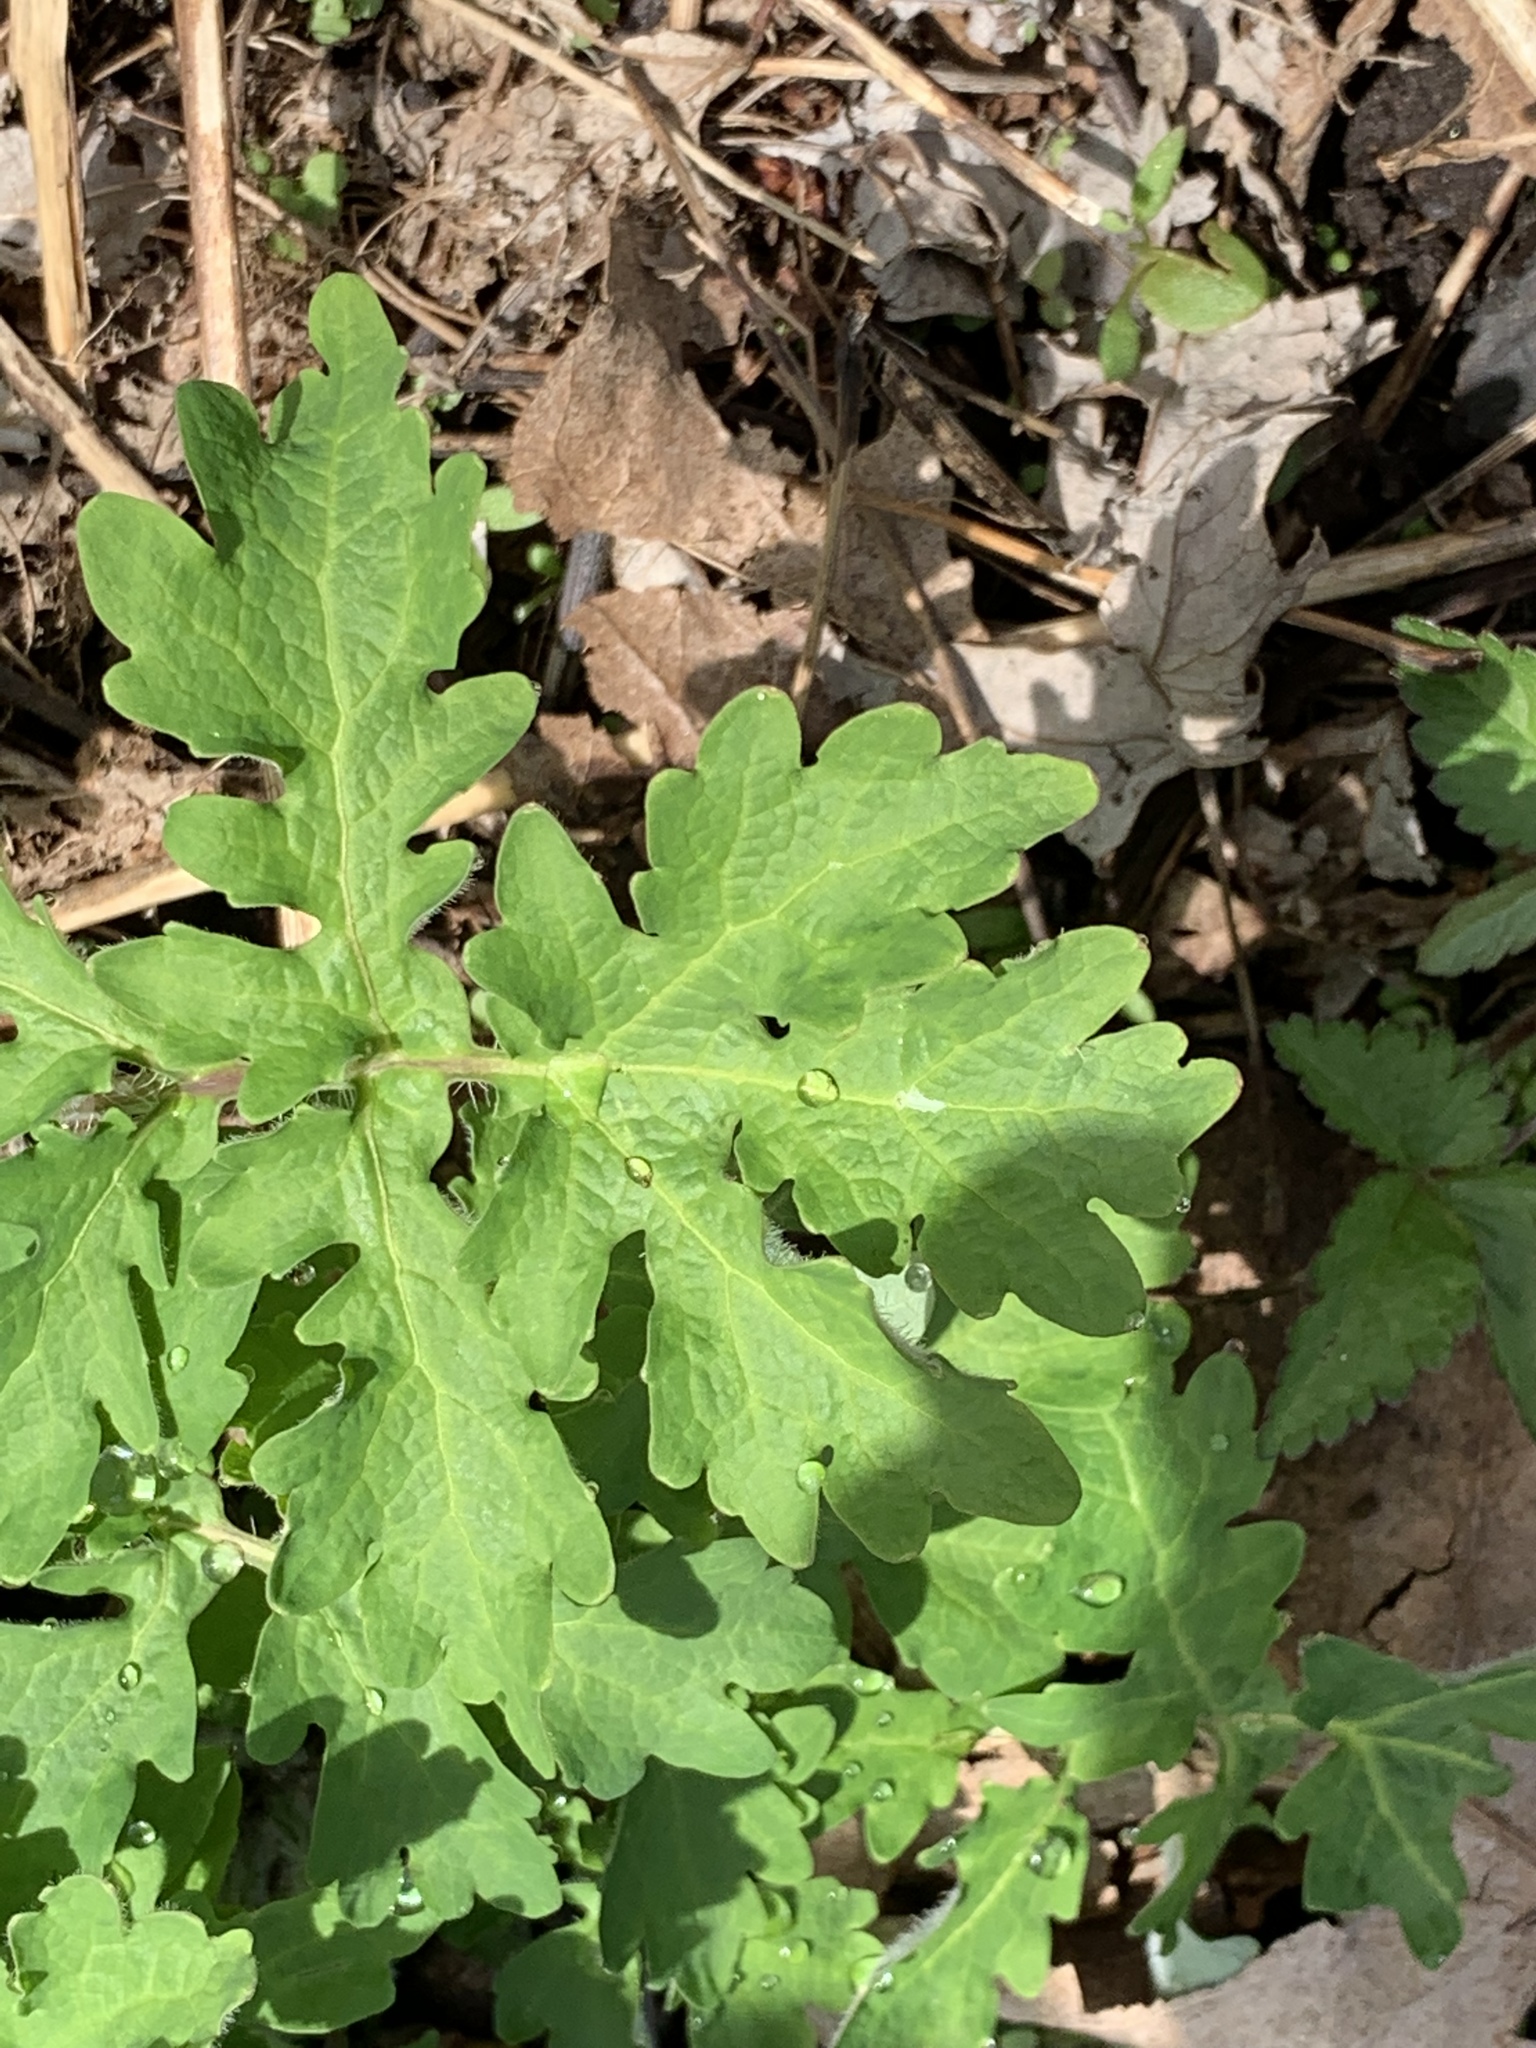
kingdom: Plantae
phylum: Tracheophyta
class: Magnoliopsida
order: Ranunculales
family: Papaveraceae
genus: Stylophorum
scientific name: Stylophorum diphyllum
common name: Celandine poppy
